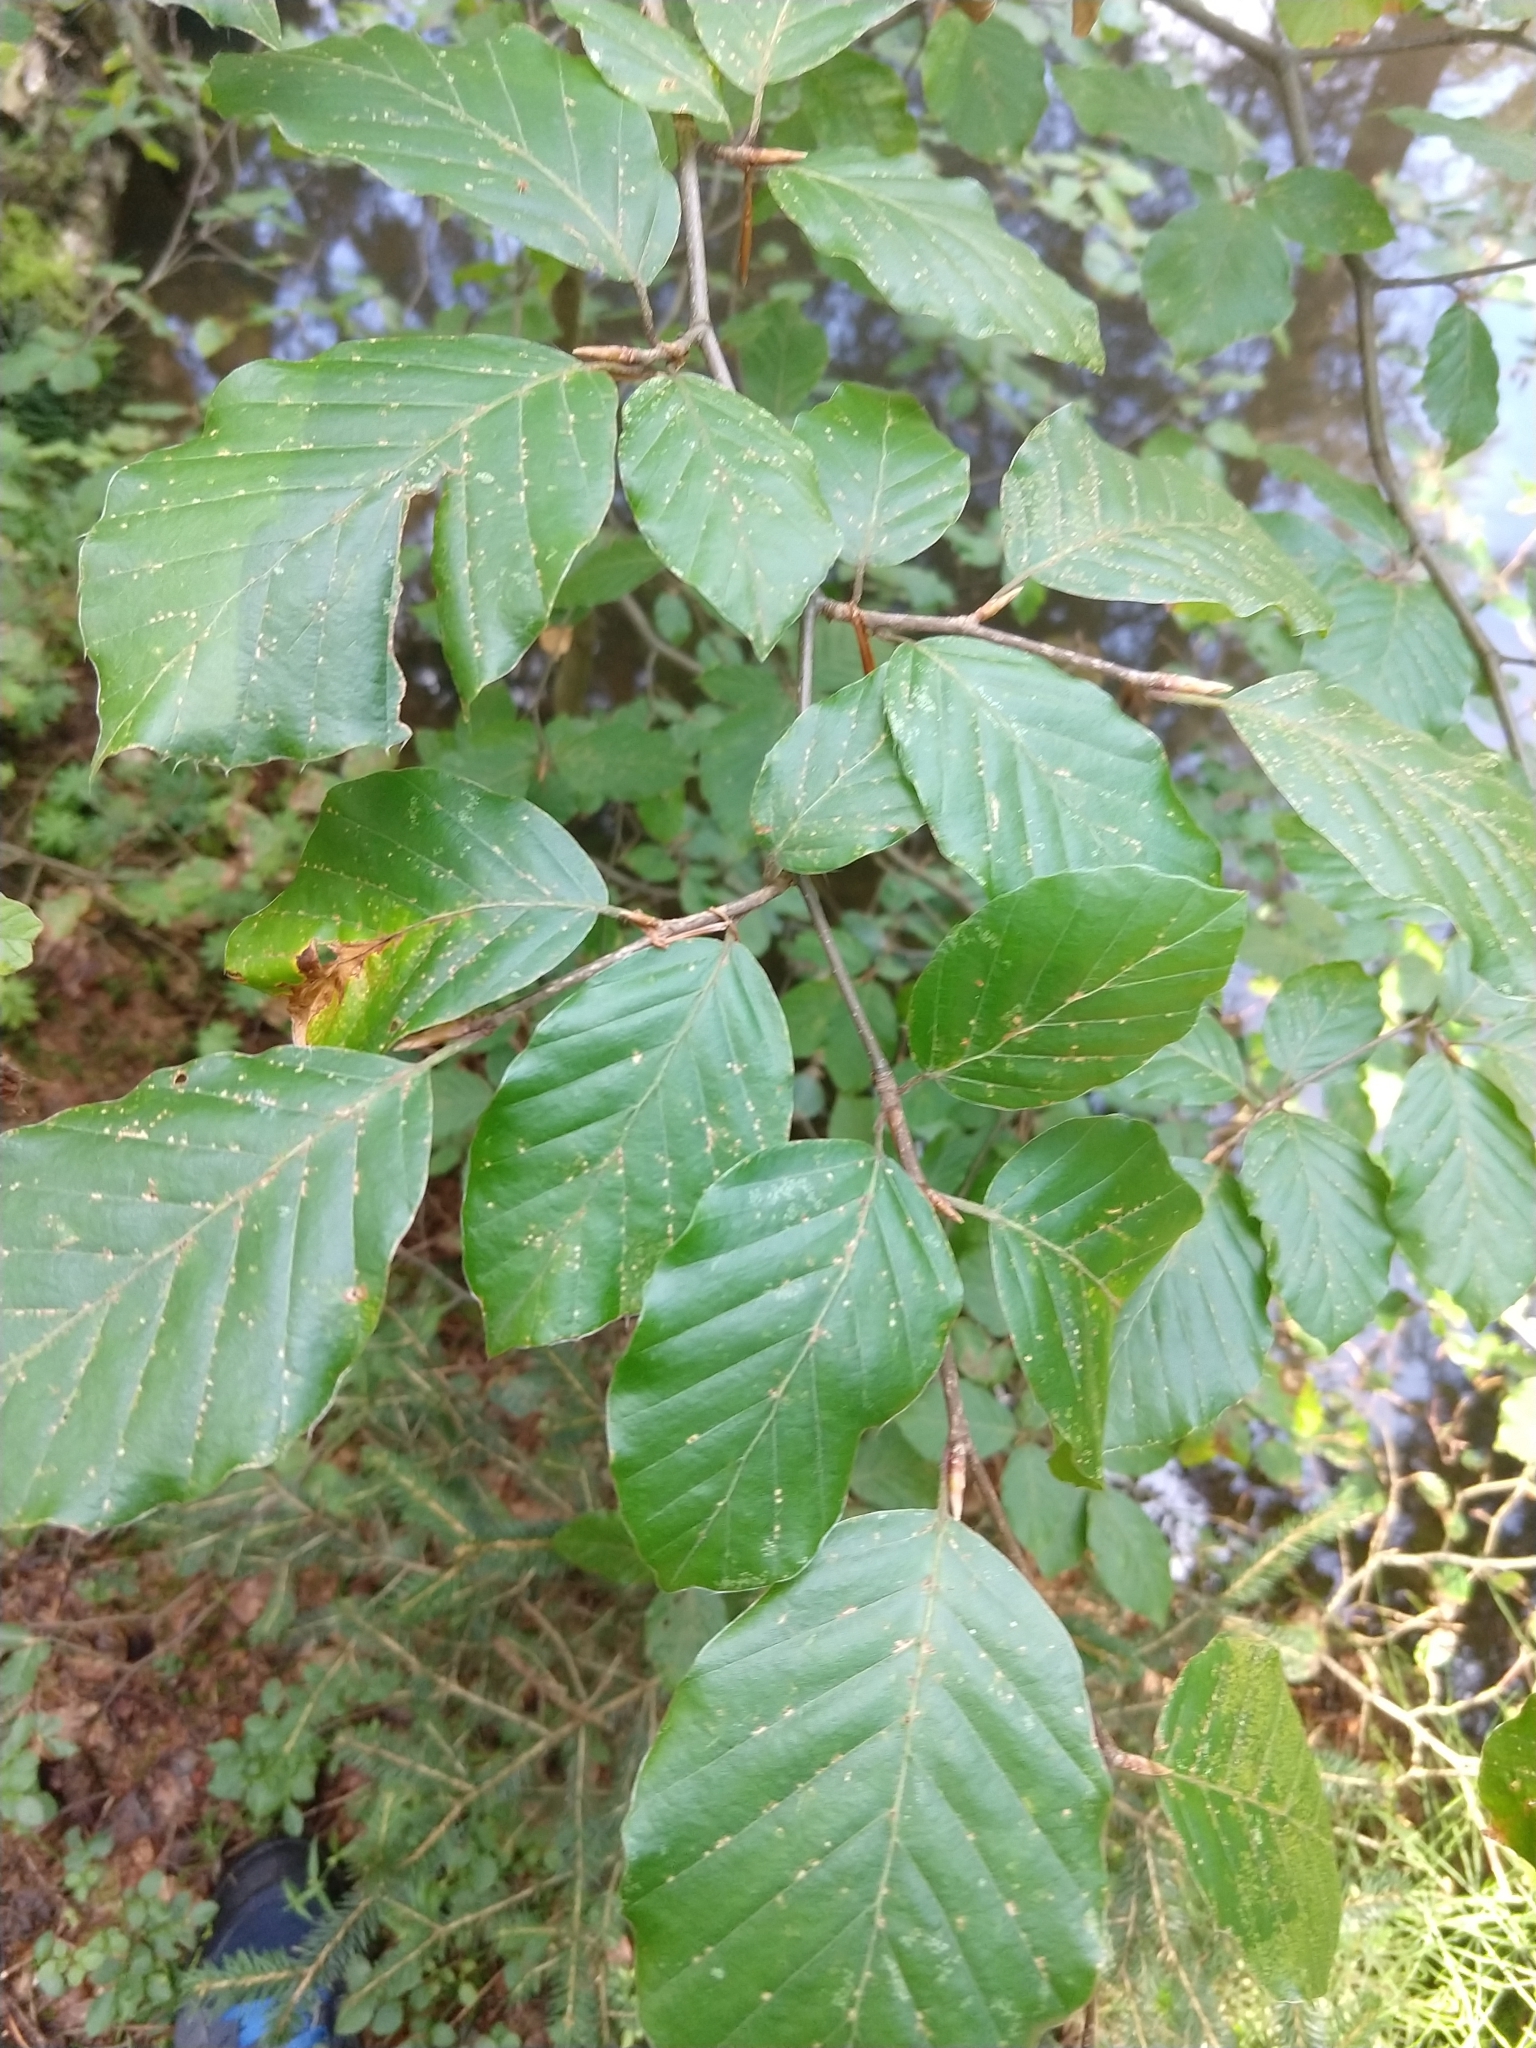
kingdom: Plantae
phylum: Tracheophyta
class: Magnoliopsida
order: Fagales
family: Fagaceae
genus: Fagus
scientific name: Fagus sylvatica
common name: Beech
